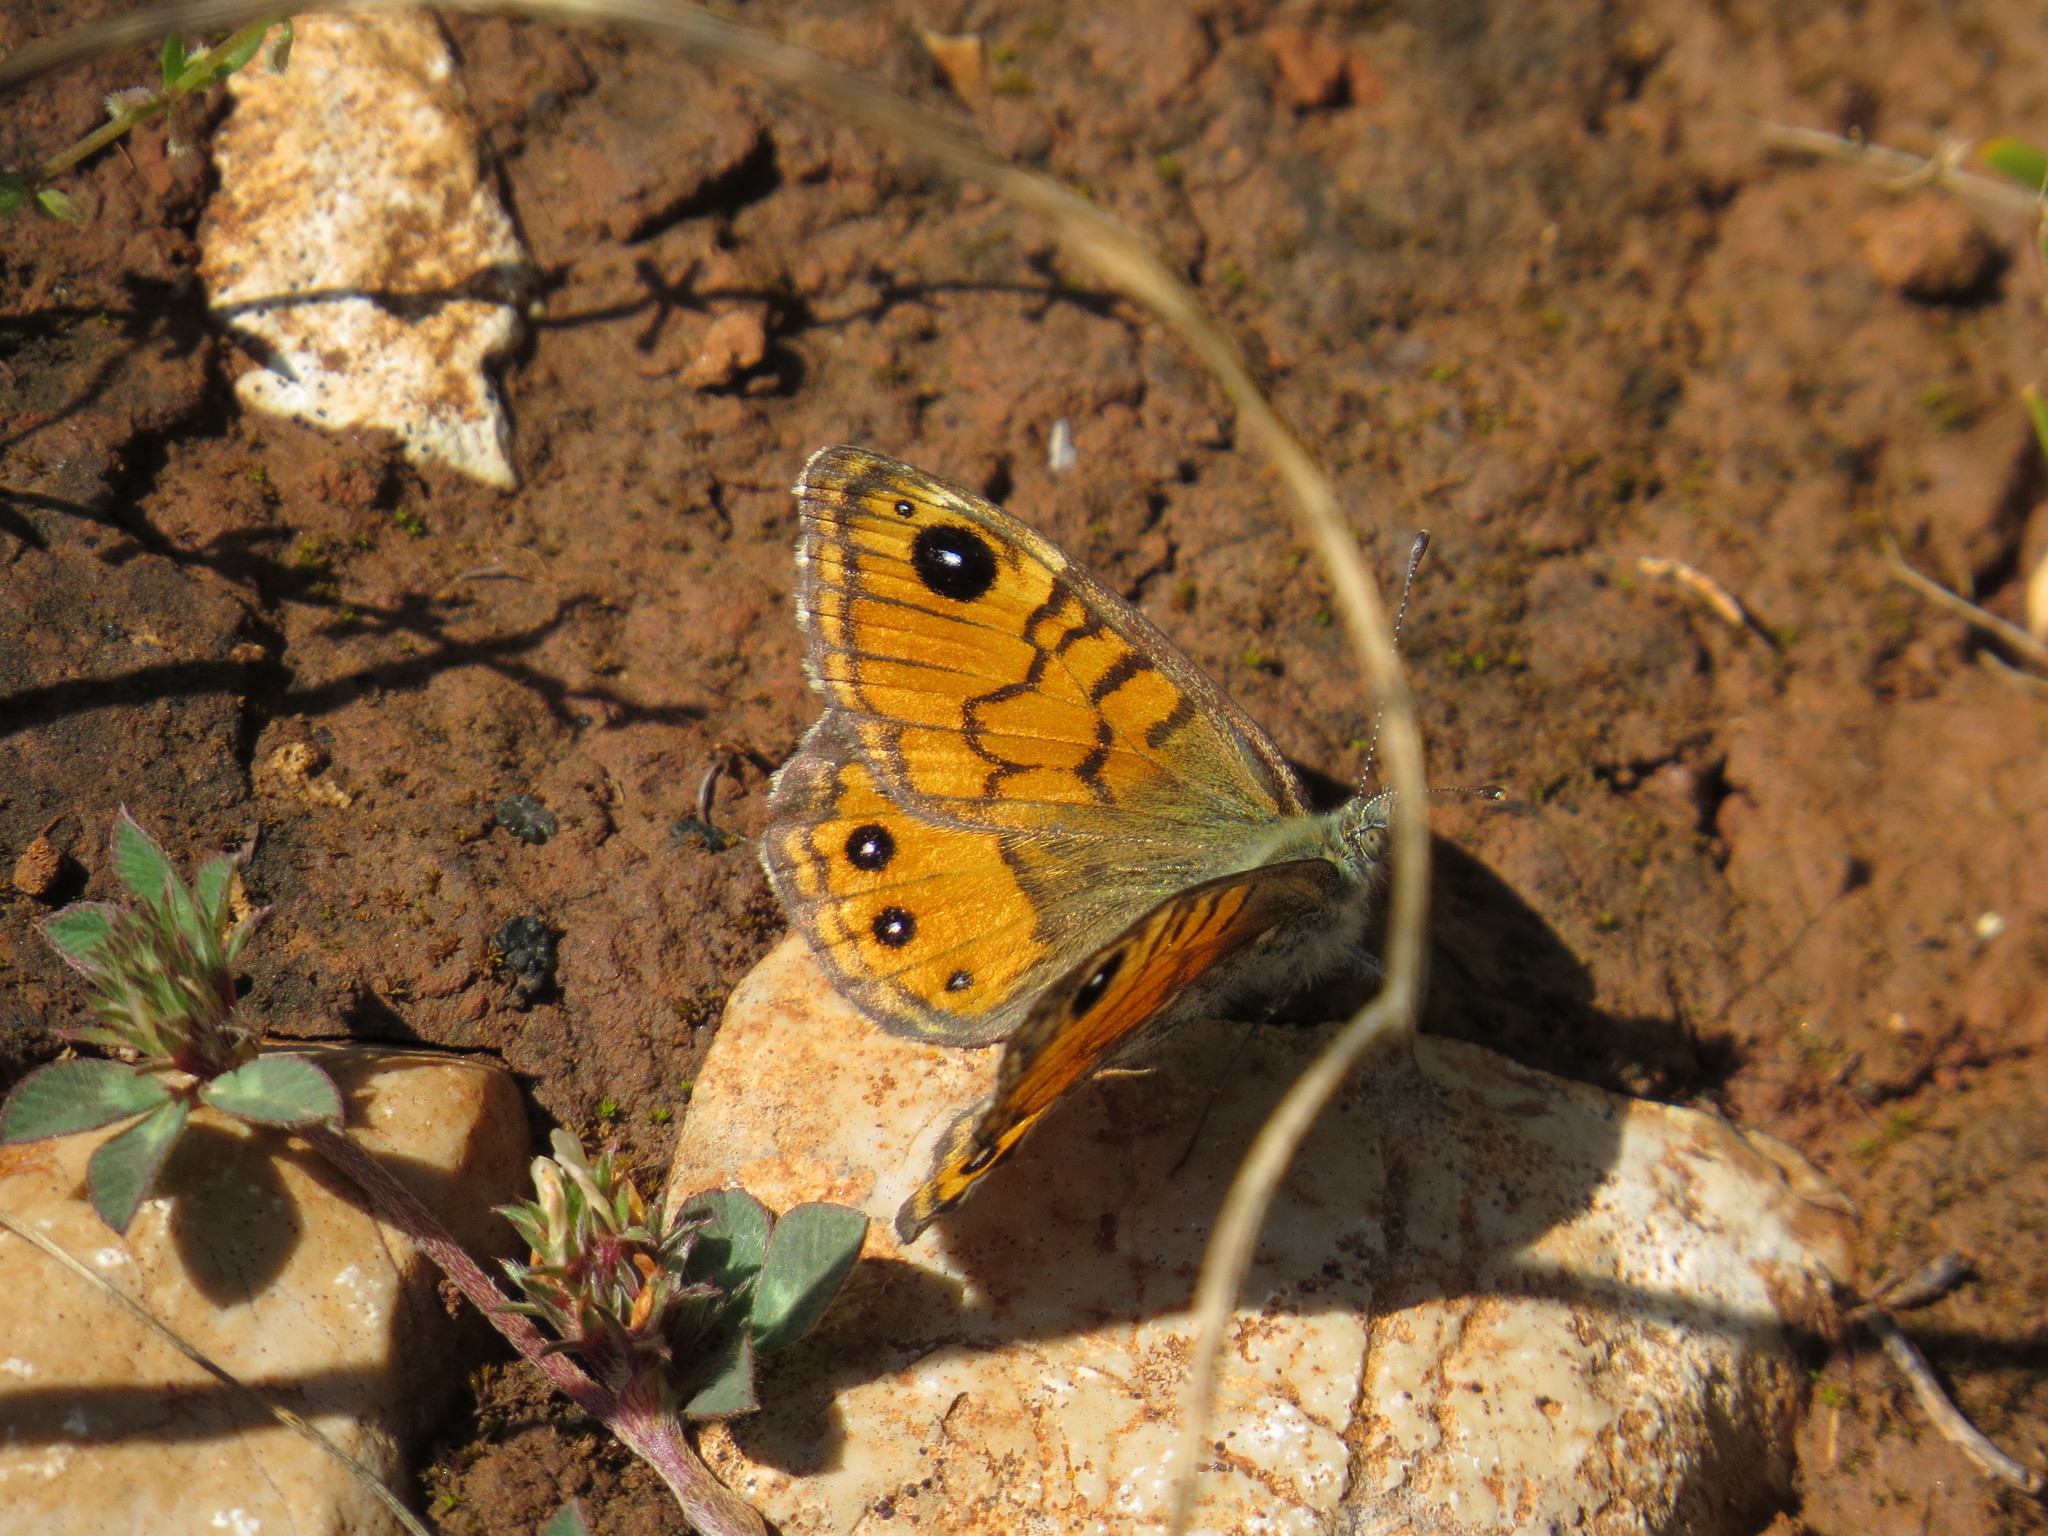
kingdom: Animalia
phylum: Arthropoda
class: Insecta
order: Lepidoptera
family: Nymphalidae
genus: Pararge
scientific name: Pararge Lasiommata paramegaera
